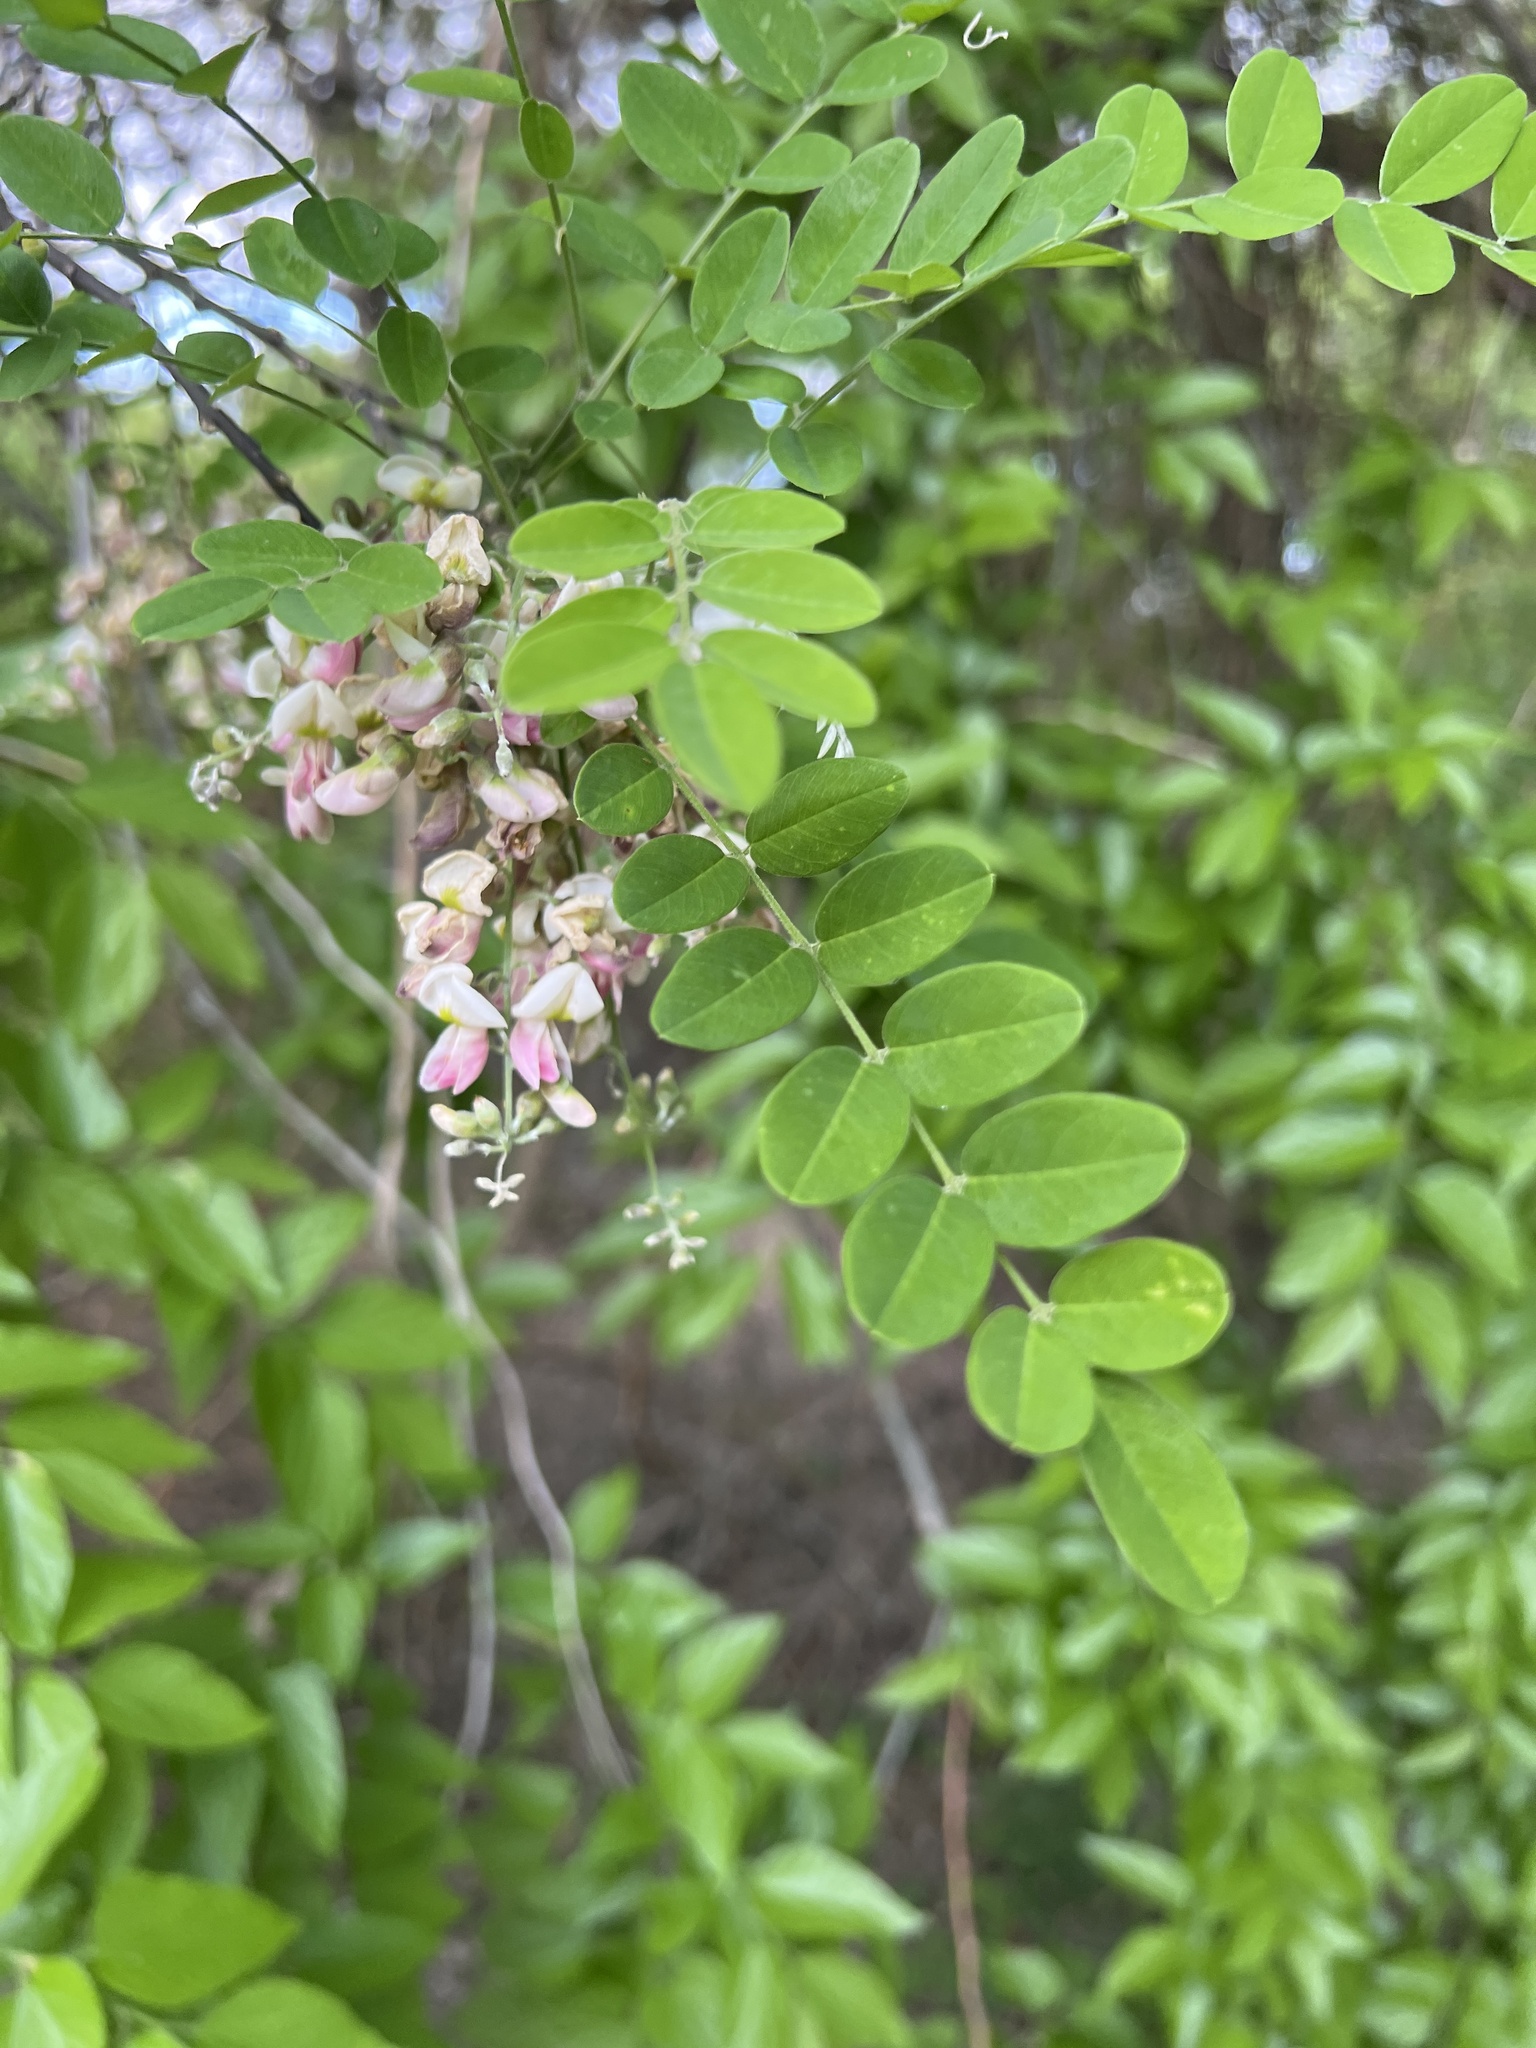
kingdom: Plantae
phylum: Tracheophyta
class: Magnoliopsida
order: Fabales
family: Fabaceae
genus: Styphnolobium
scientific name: Styphnolobium affine
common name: Texas sophora
